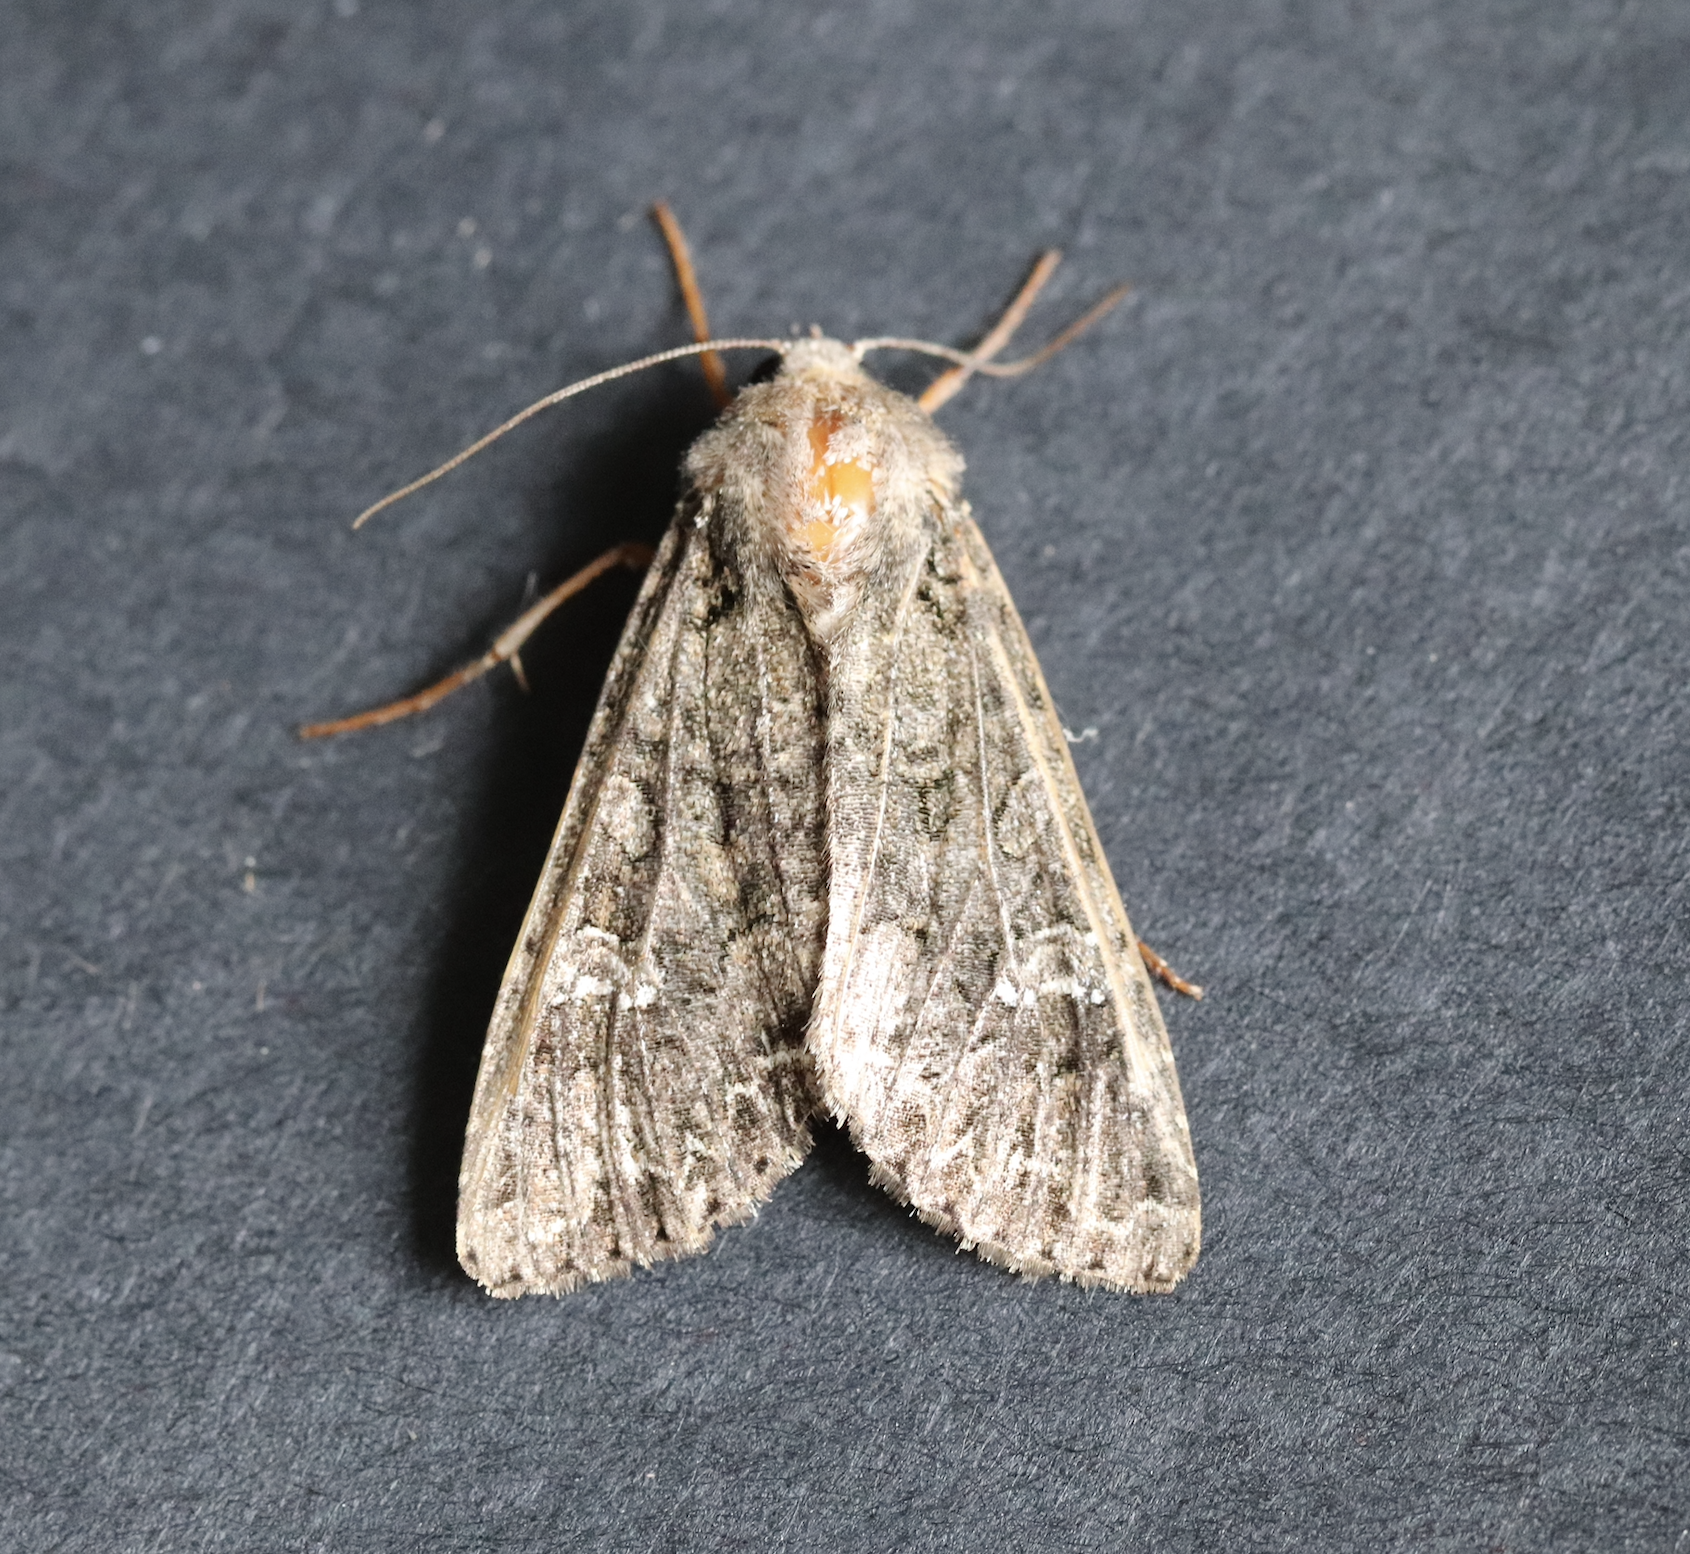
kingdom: Animalia
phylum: Arthropoda
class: Insecta
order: Lepidoptera
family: Noctuidae
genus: Mamestra
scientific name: Mamestra brassicae
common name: Cabbage moth
